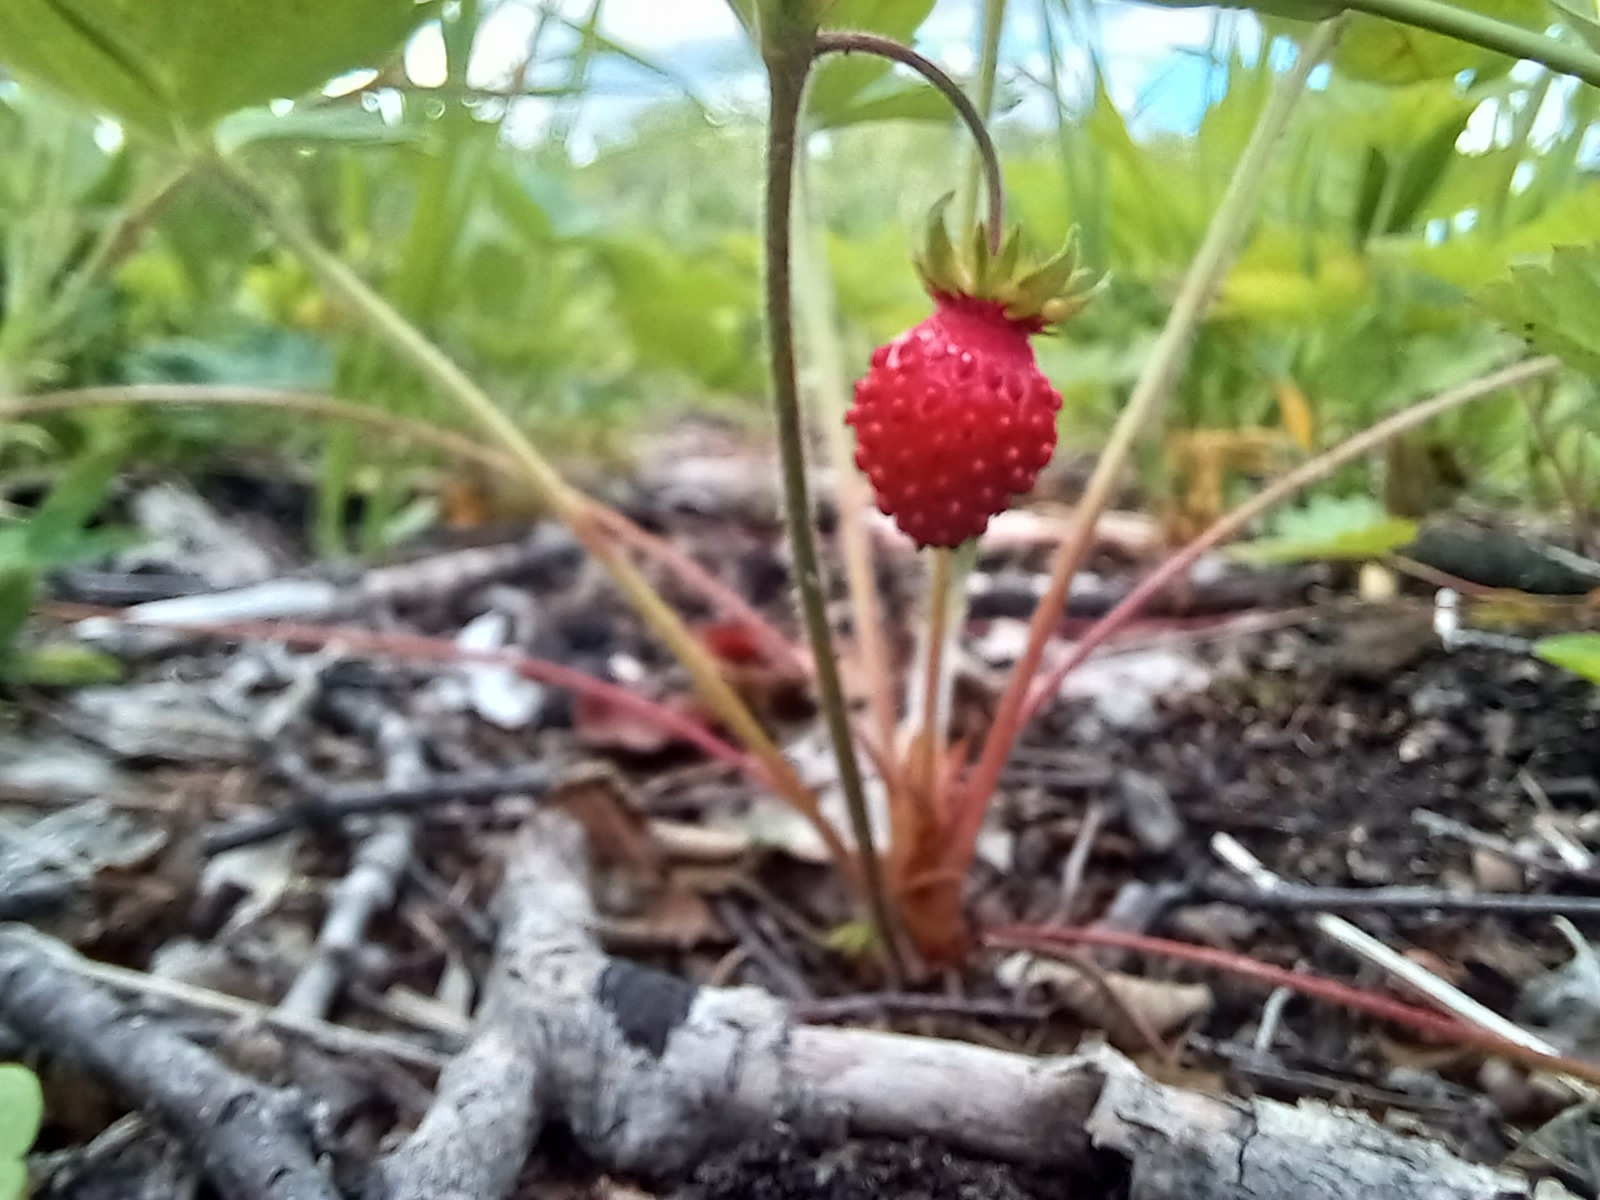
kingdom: Plantae
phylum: Tracheophyta
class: Magnoliopsida
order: Rosales
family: Rosaceae
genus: Fragaria
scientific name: Fragaria vesca
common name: Wild strawberry
